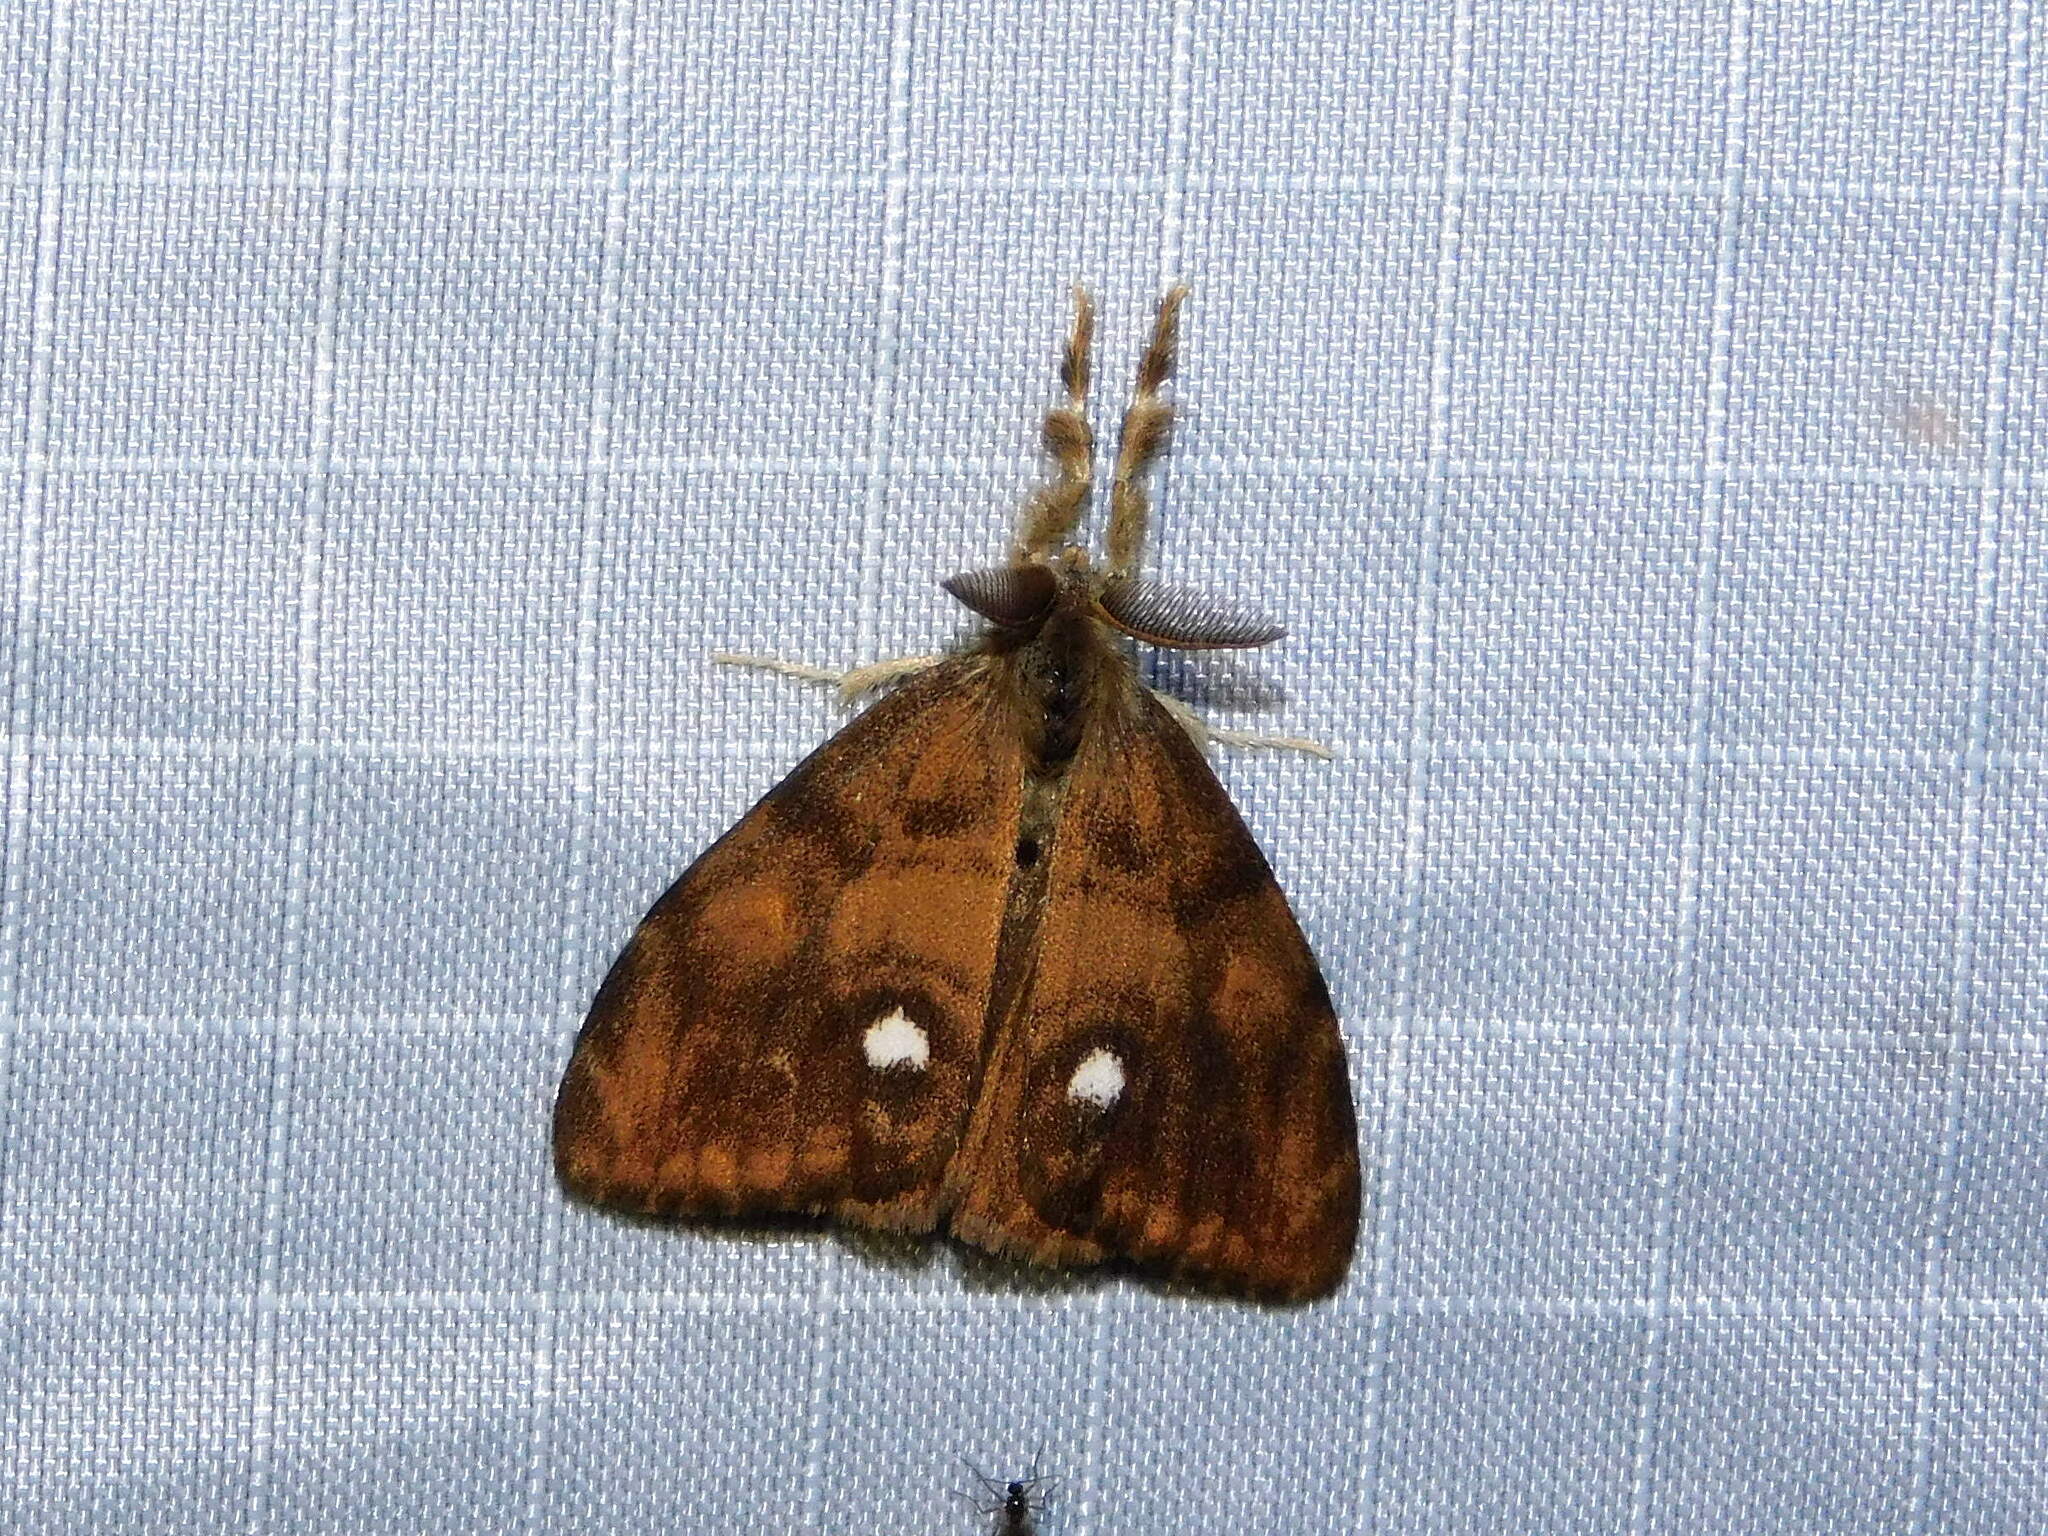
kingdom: Animalia
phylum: Arthropoda
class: Insecta
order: Lepidoptera
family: Erebidae
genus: Orgyia
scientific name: Orgyia antiqua
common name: Vapourer
